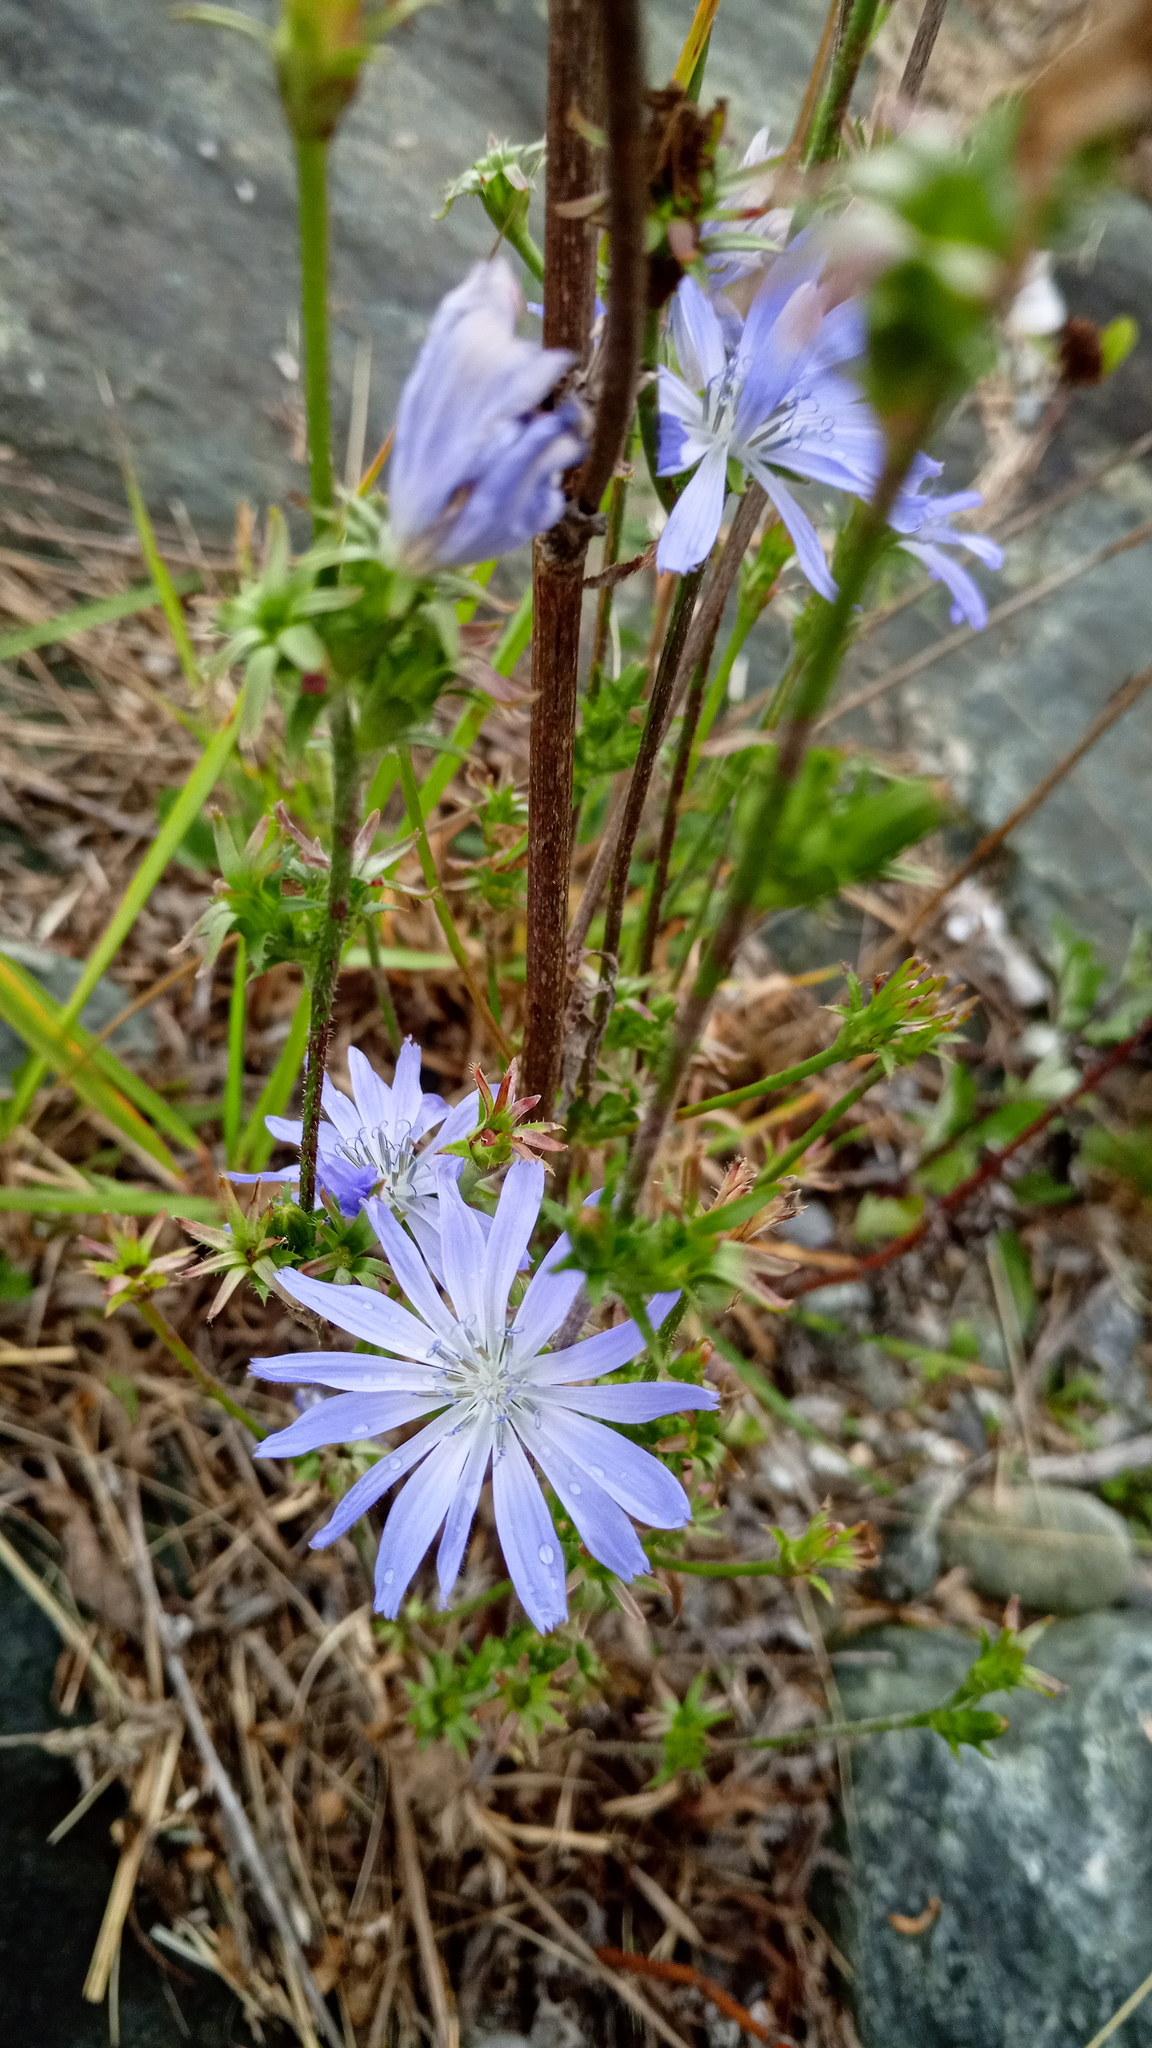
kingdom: Plantae
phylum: Tracheophyta
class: Magnoliopsida
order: Asterales
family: Asteraceae
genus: Cichorium
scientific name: Cichorium intybus
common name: Chicory
